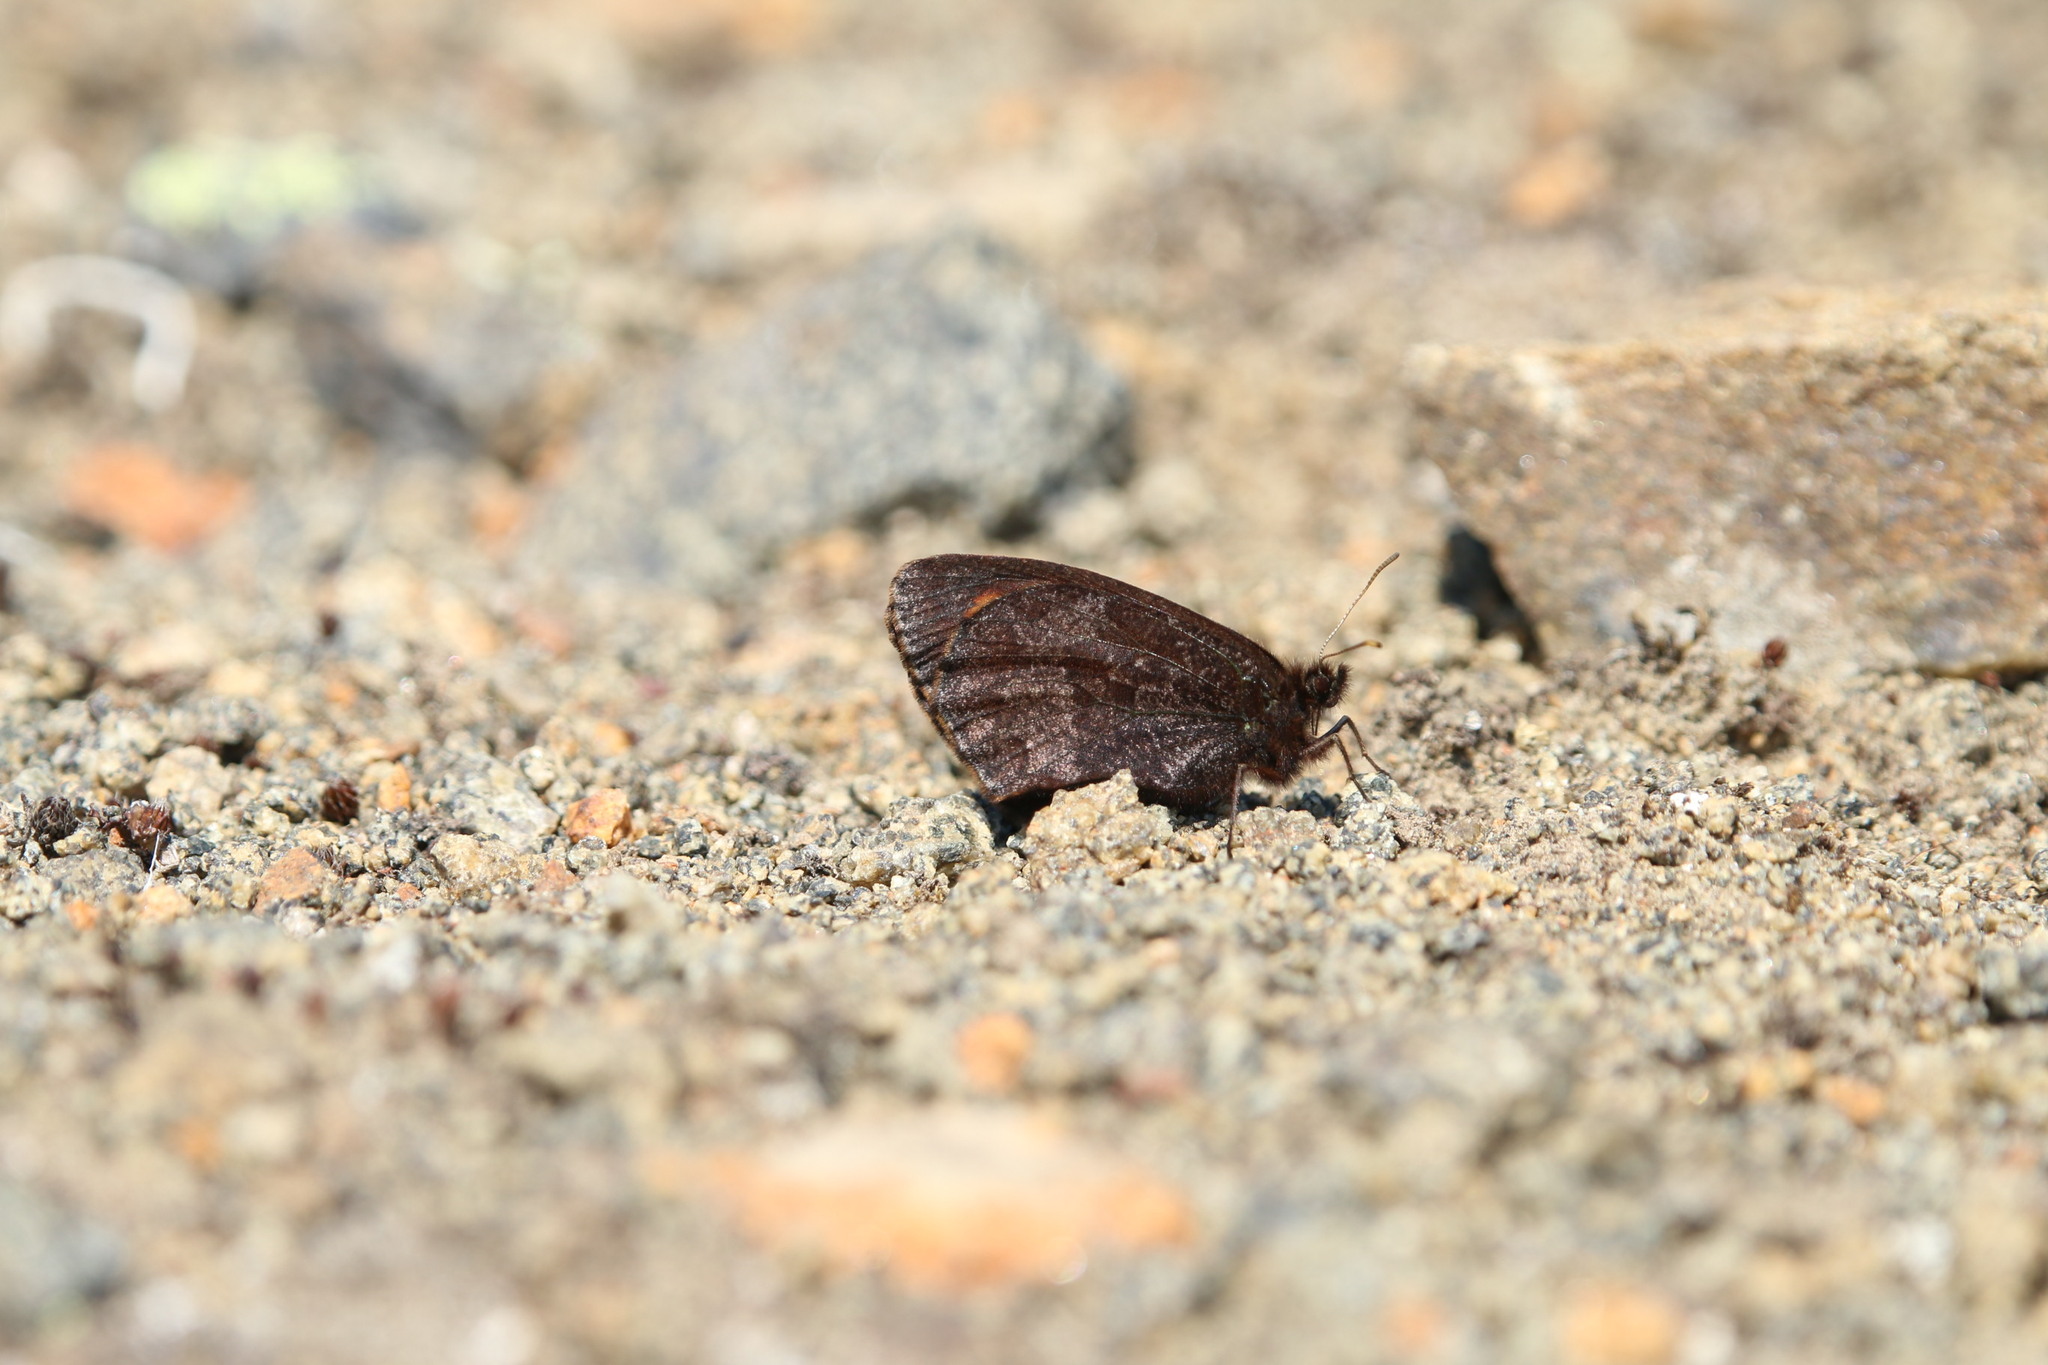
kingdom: Animalia
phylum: Arthropoda
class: Insecta
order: Lepidoptera
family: Nymphalidae
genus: Erebia
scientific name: Erebia rossii
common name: Ross' alpine
